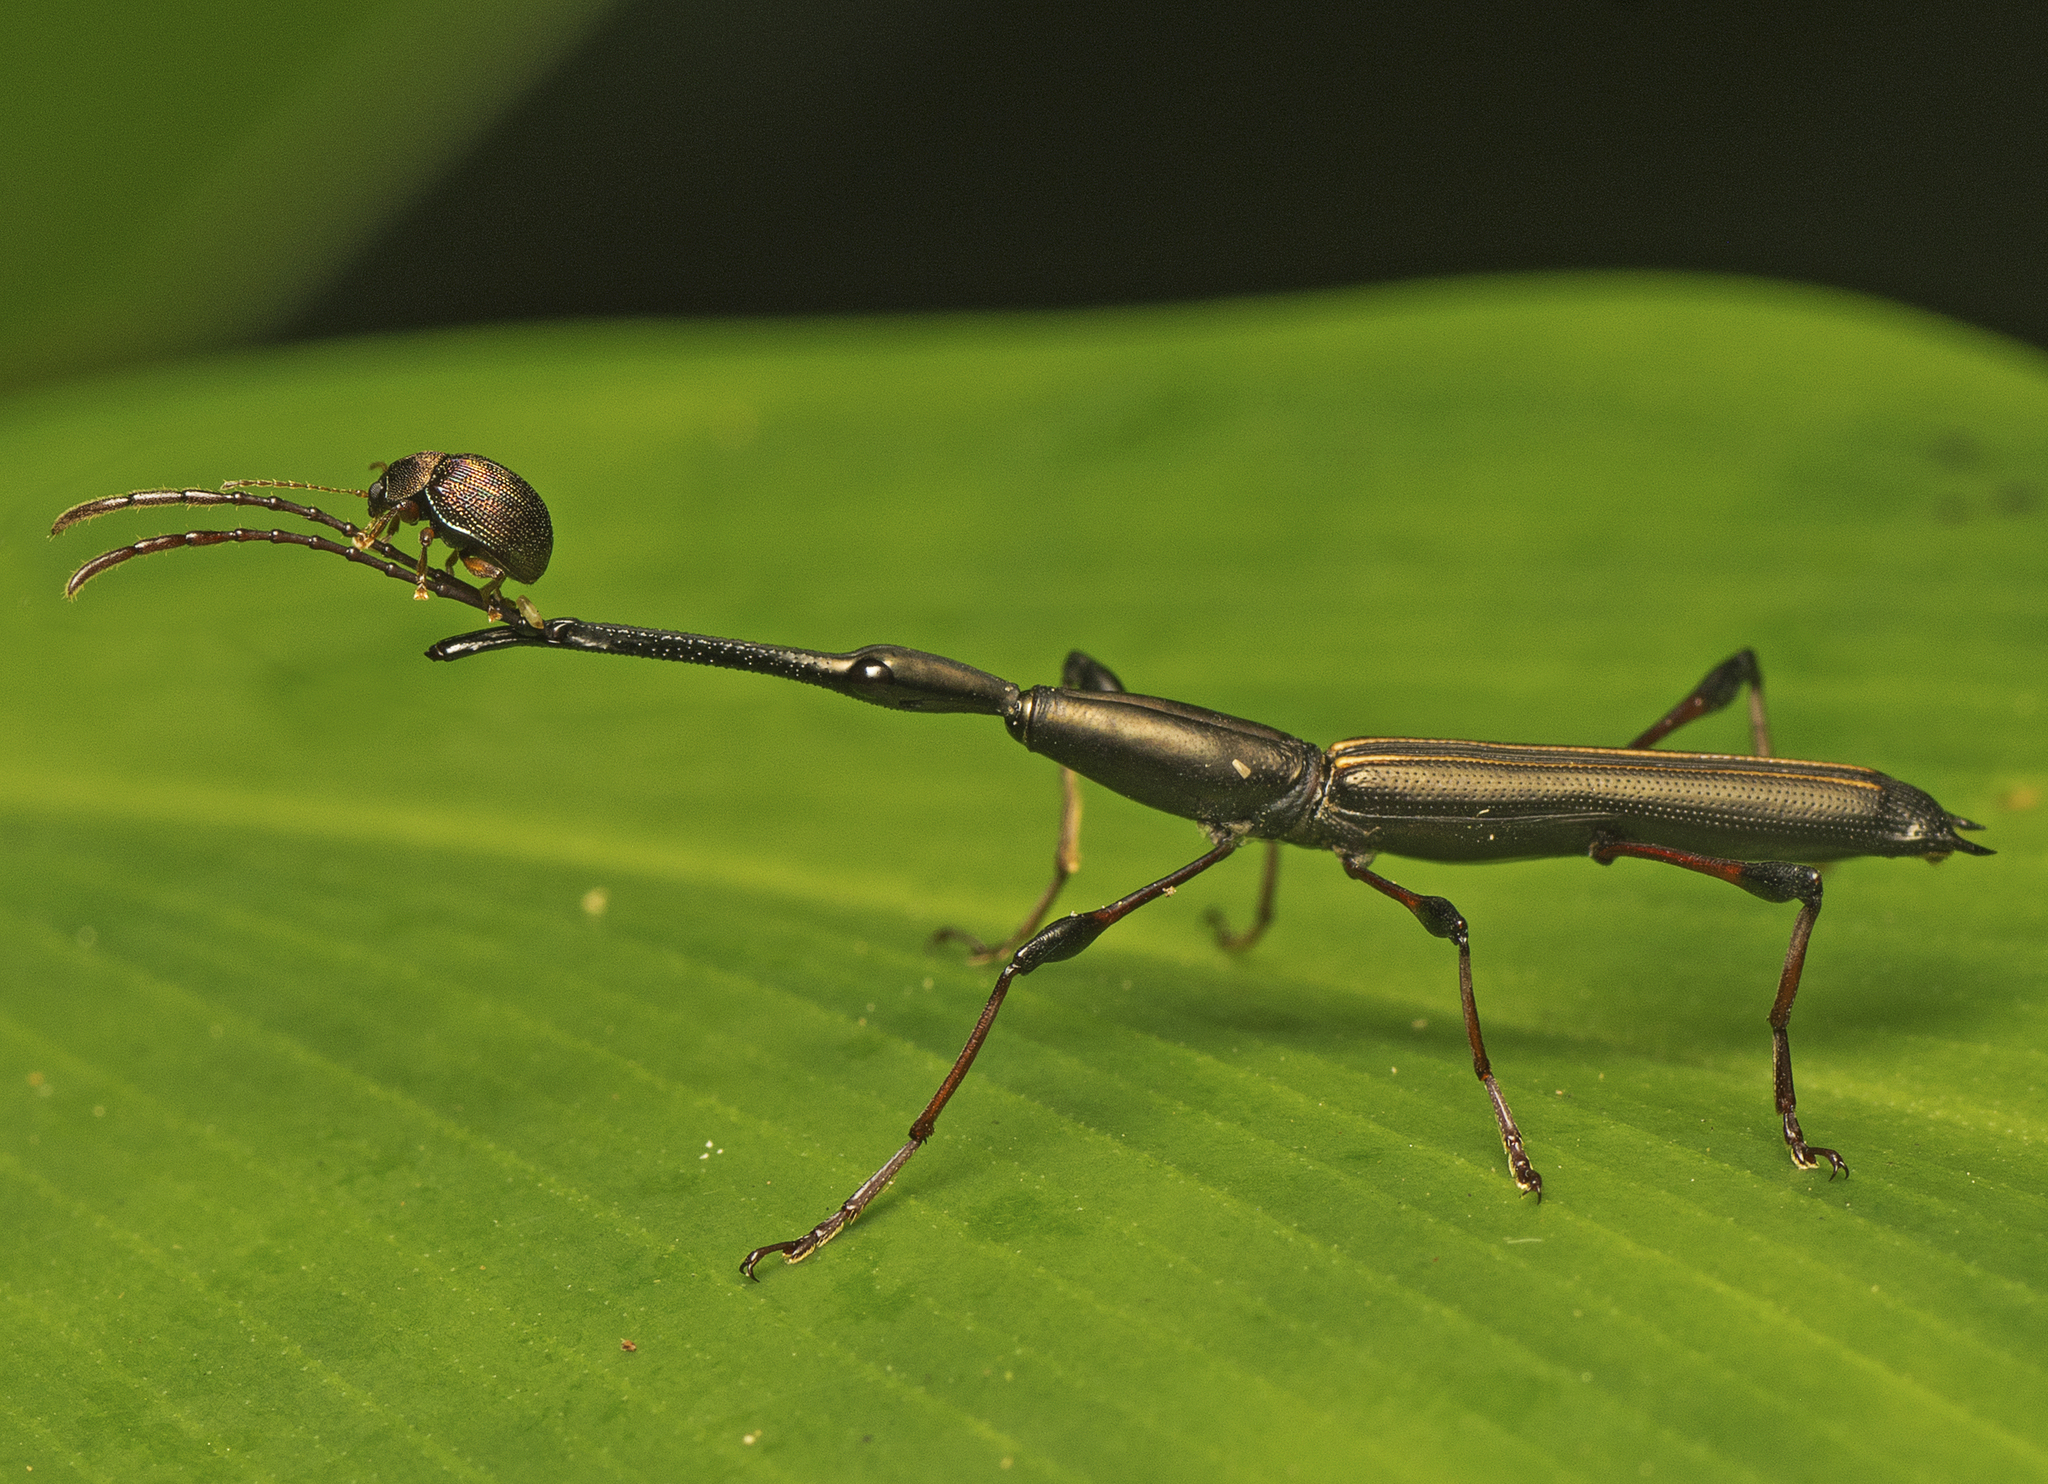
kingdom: Animalia
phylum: Arthropoda
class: Insecta
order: Coleoptera
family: Brentidae
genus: Ithystenus
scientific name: Ithystenus hollandiae
